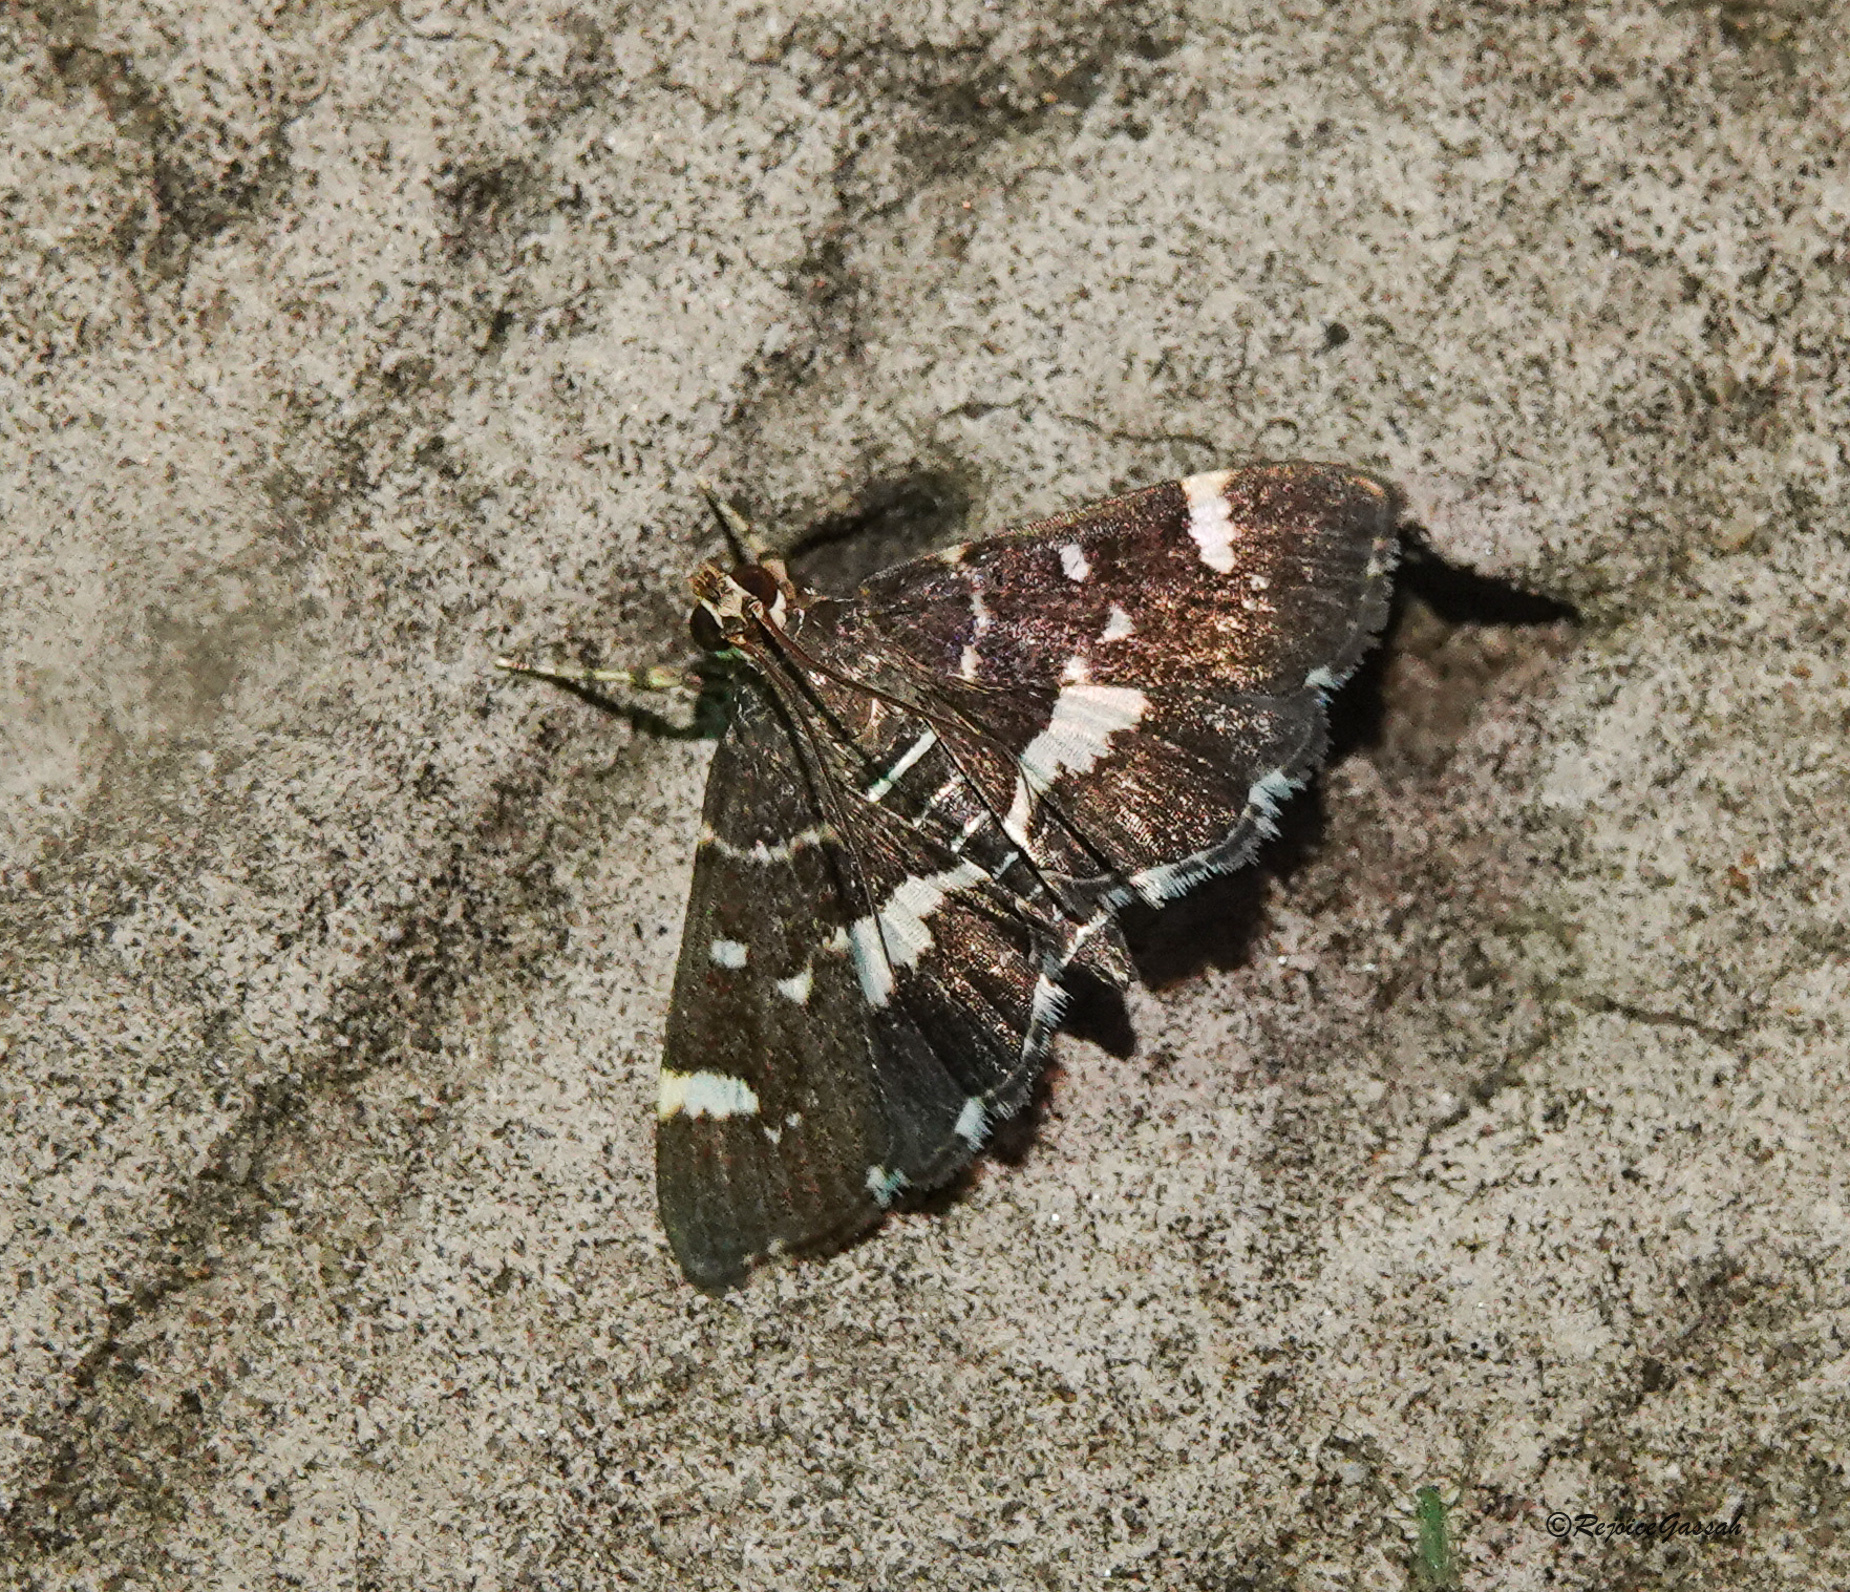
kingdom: Animalia
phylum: Arthropoda
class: Insecta
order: Lepidoptera
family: Crambidae
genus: Hymenia
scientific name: Hymenia perspectalis
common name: Spotted beet webworm
